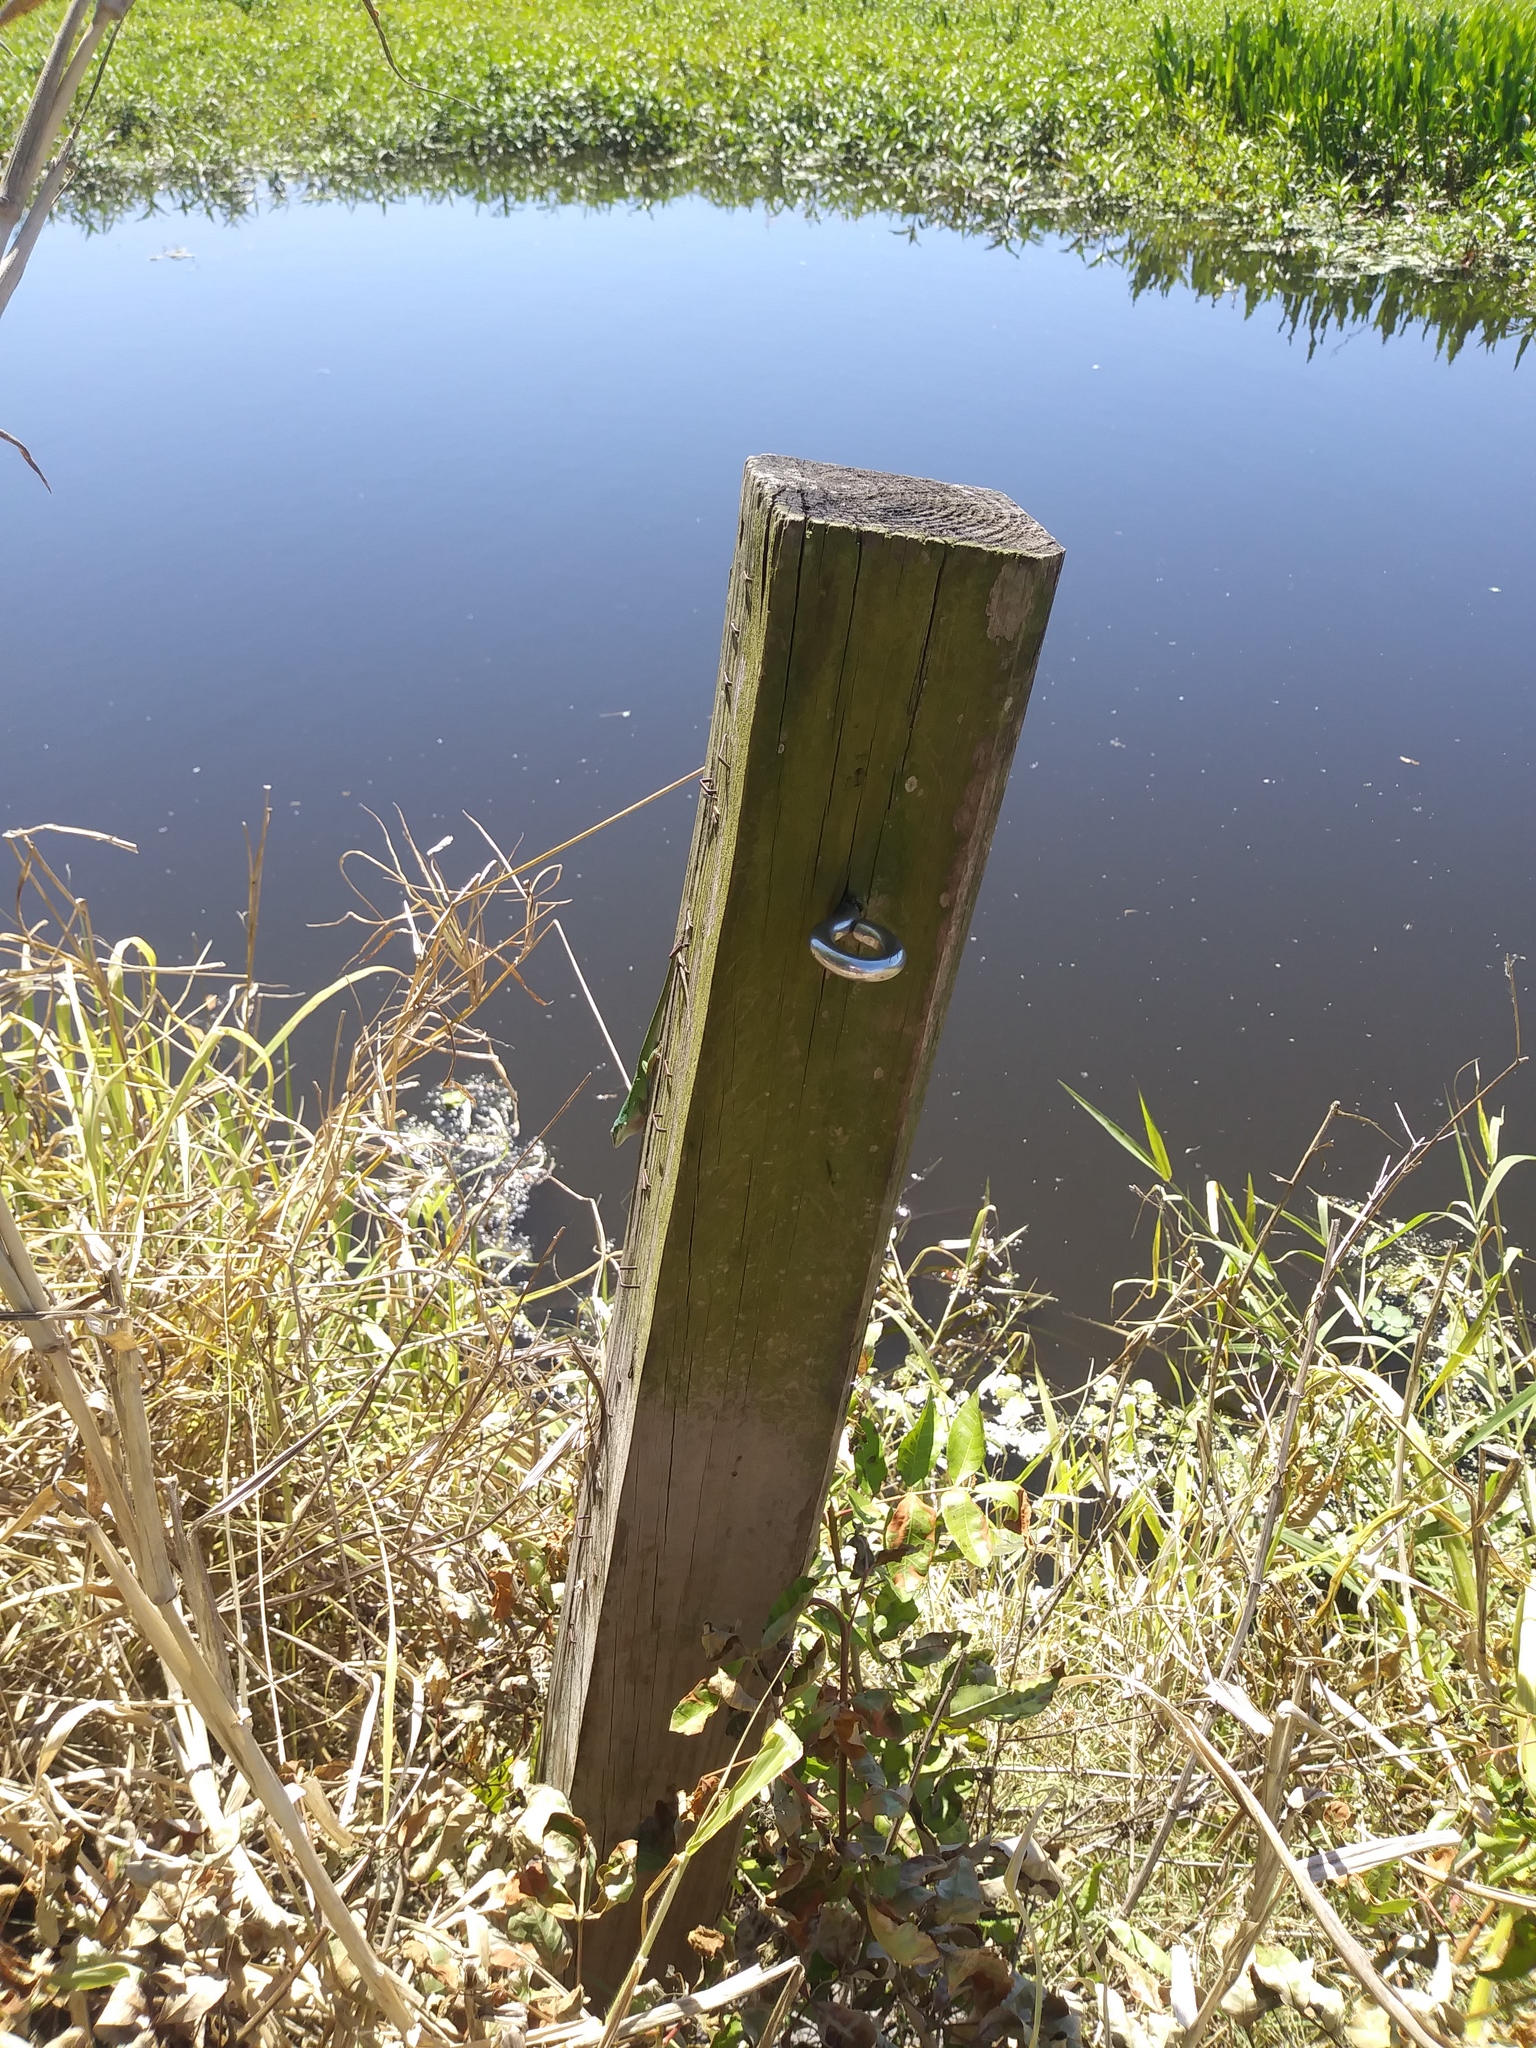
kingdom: Animalia
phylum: Chordata
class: Squamata
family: Dactyloidae
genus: Anolis
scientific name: Anolis carolinensis
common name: Green anole
